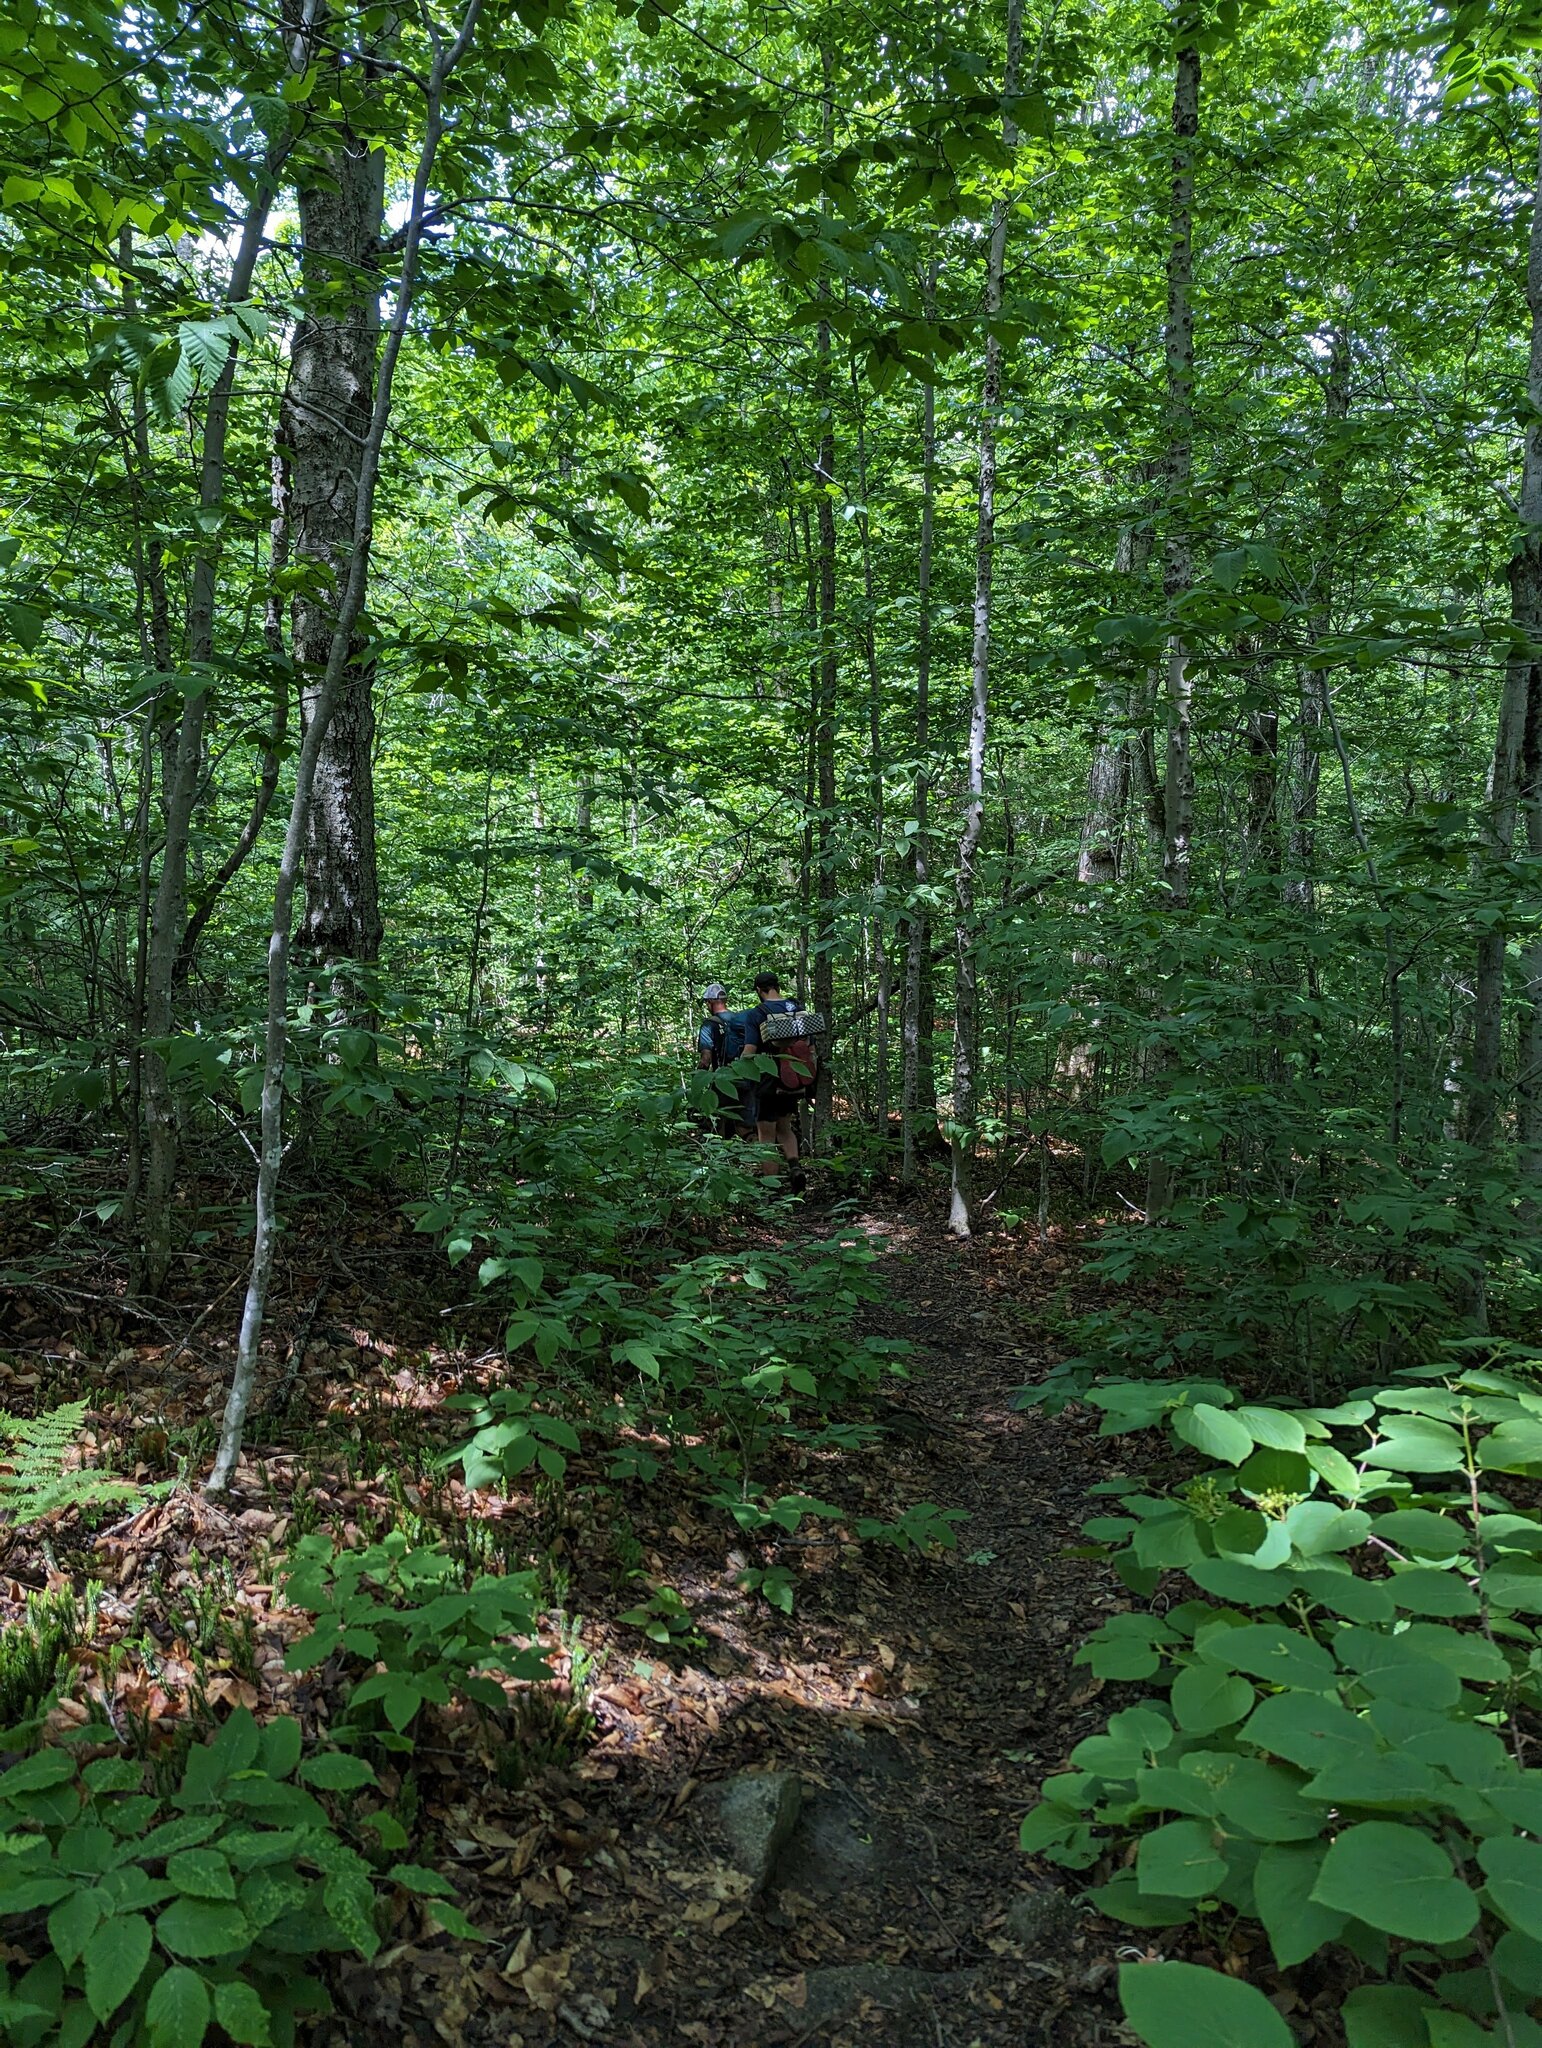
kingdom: Plantae
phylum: Tracheophyta
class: Magnoliopsida
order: Dipsacales
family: Viburnaceae
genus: Viburnum
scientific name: Viburnum lantanoides
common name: Hobblebush
